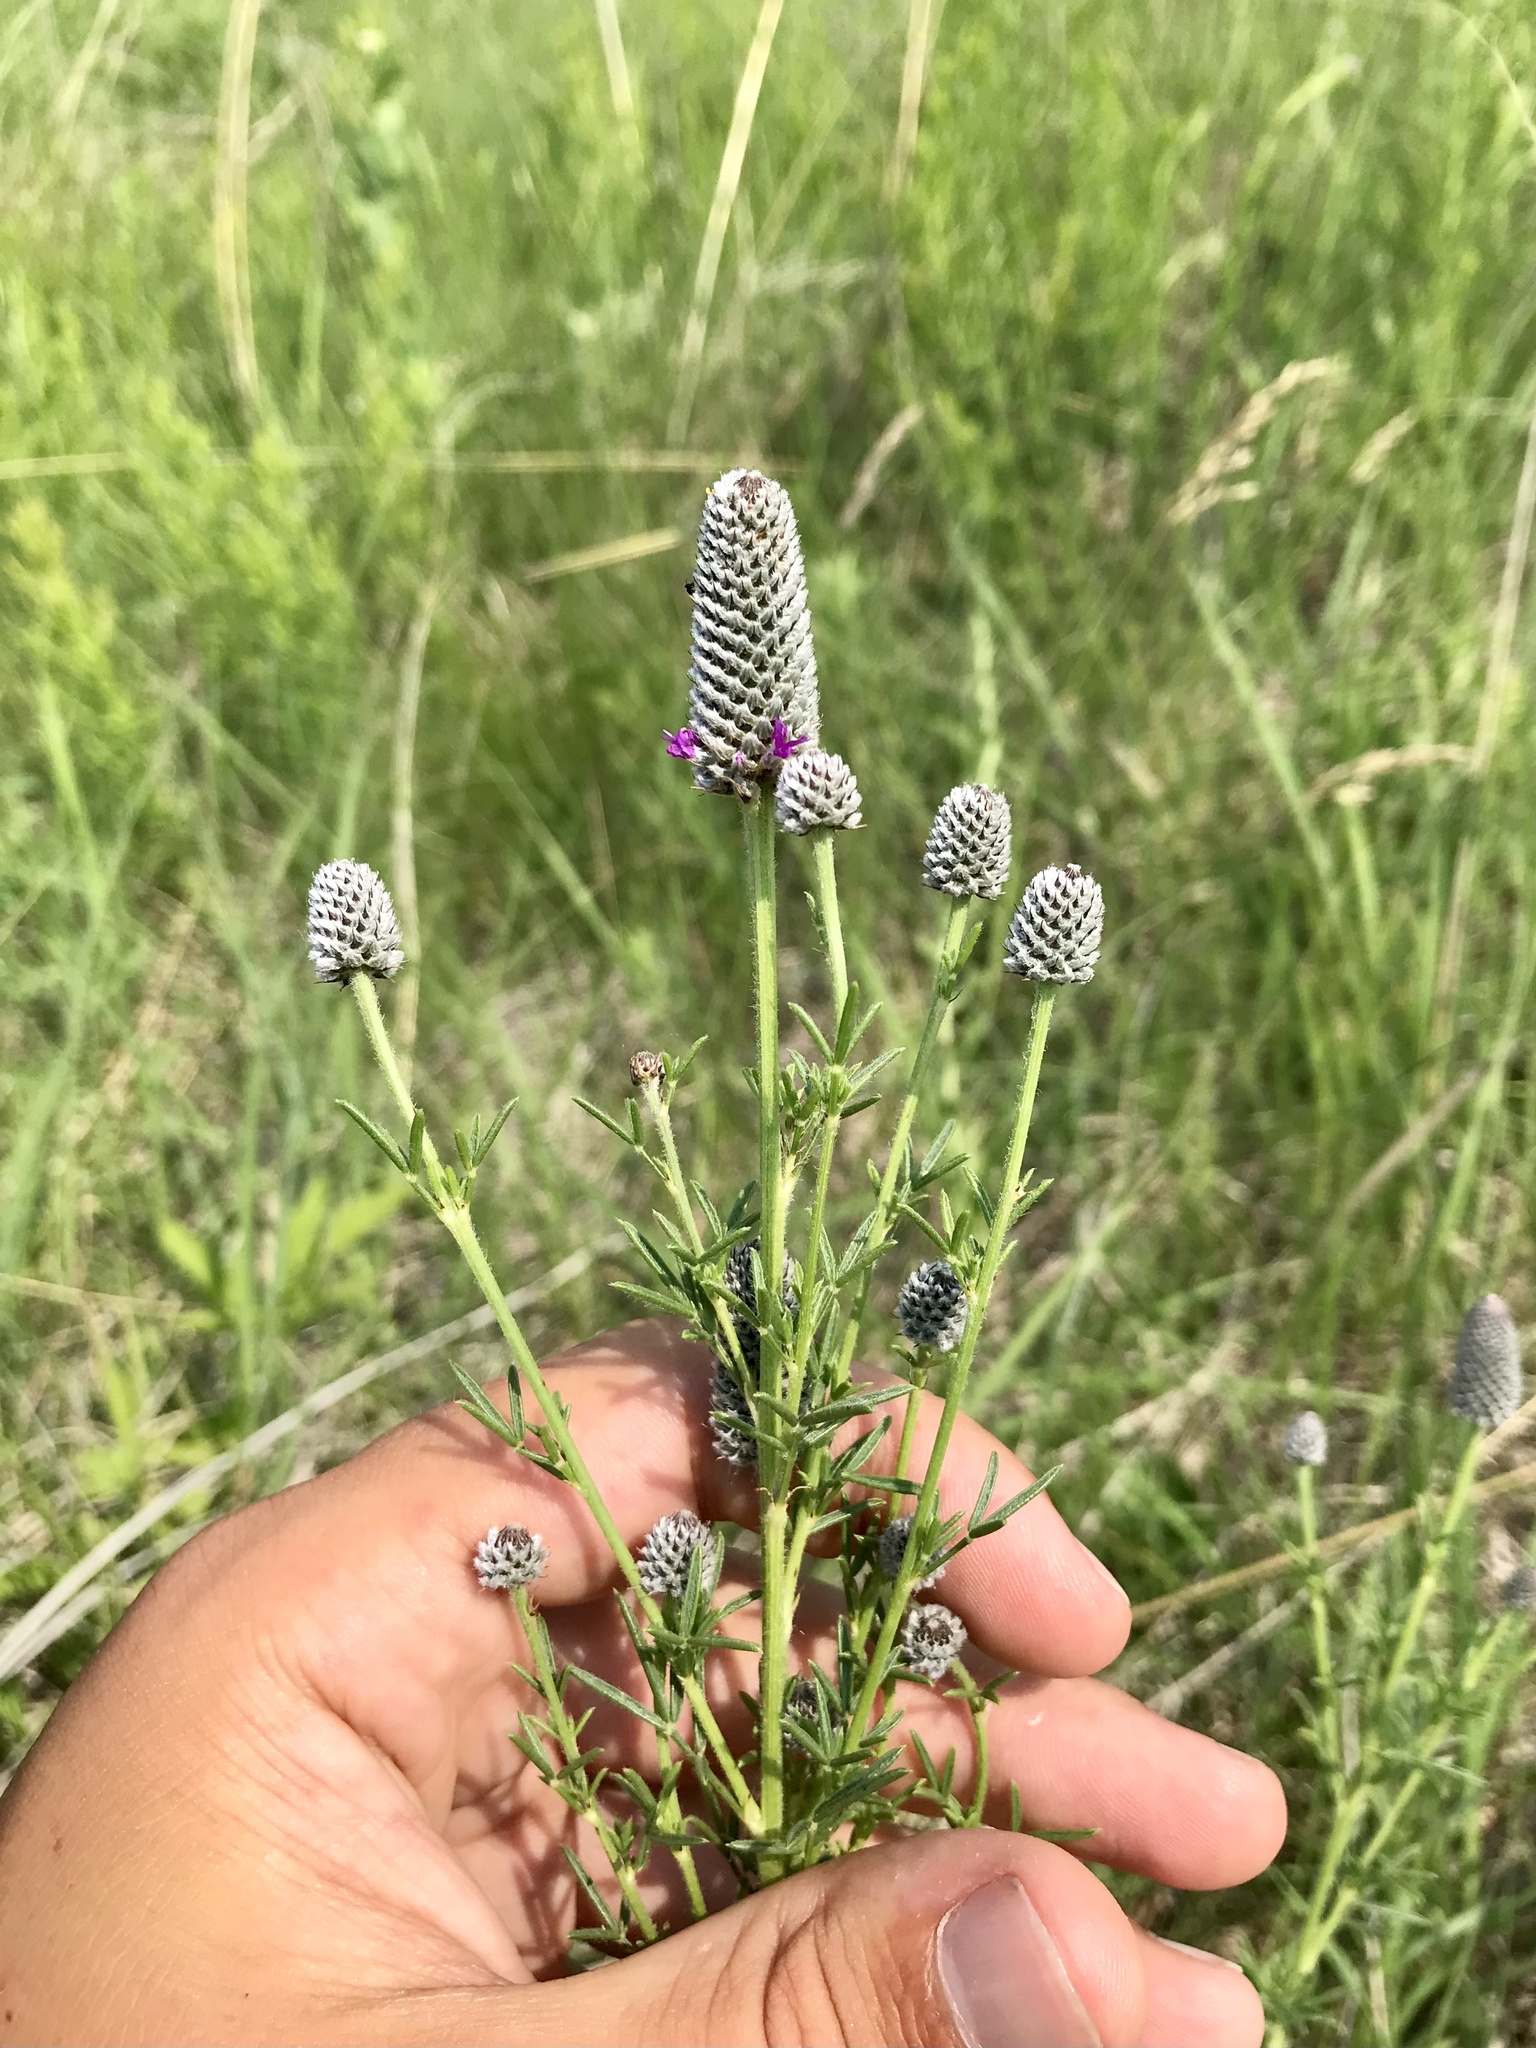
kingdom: Plantae
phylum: Tracheophyta
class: Magnoliopsida
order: Fabales
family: Fabaceae
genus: Dalea
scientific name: Dalea purpurea
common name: Purple prairie-clover
